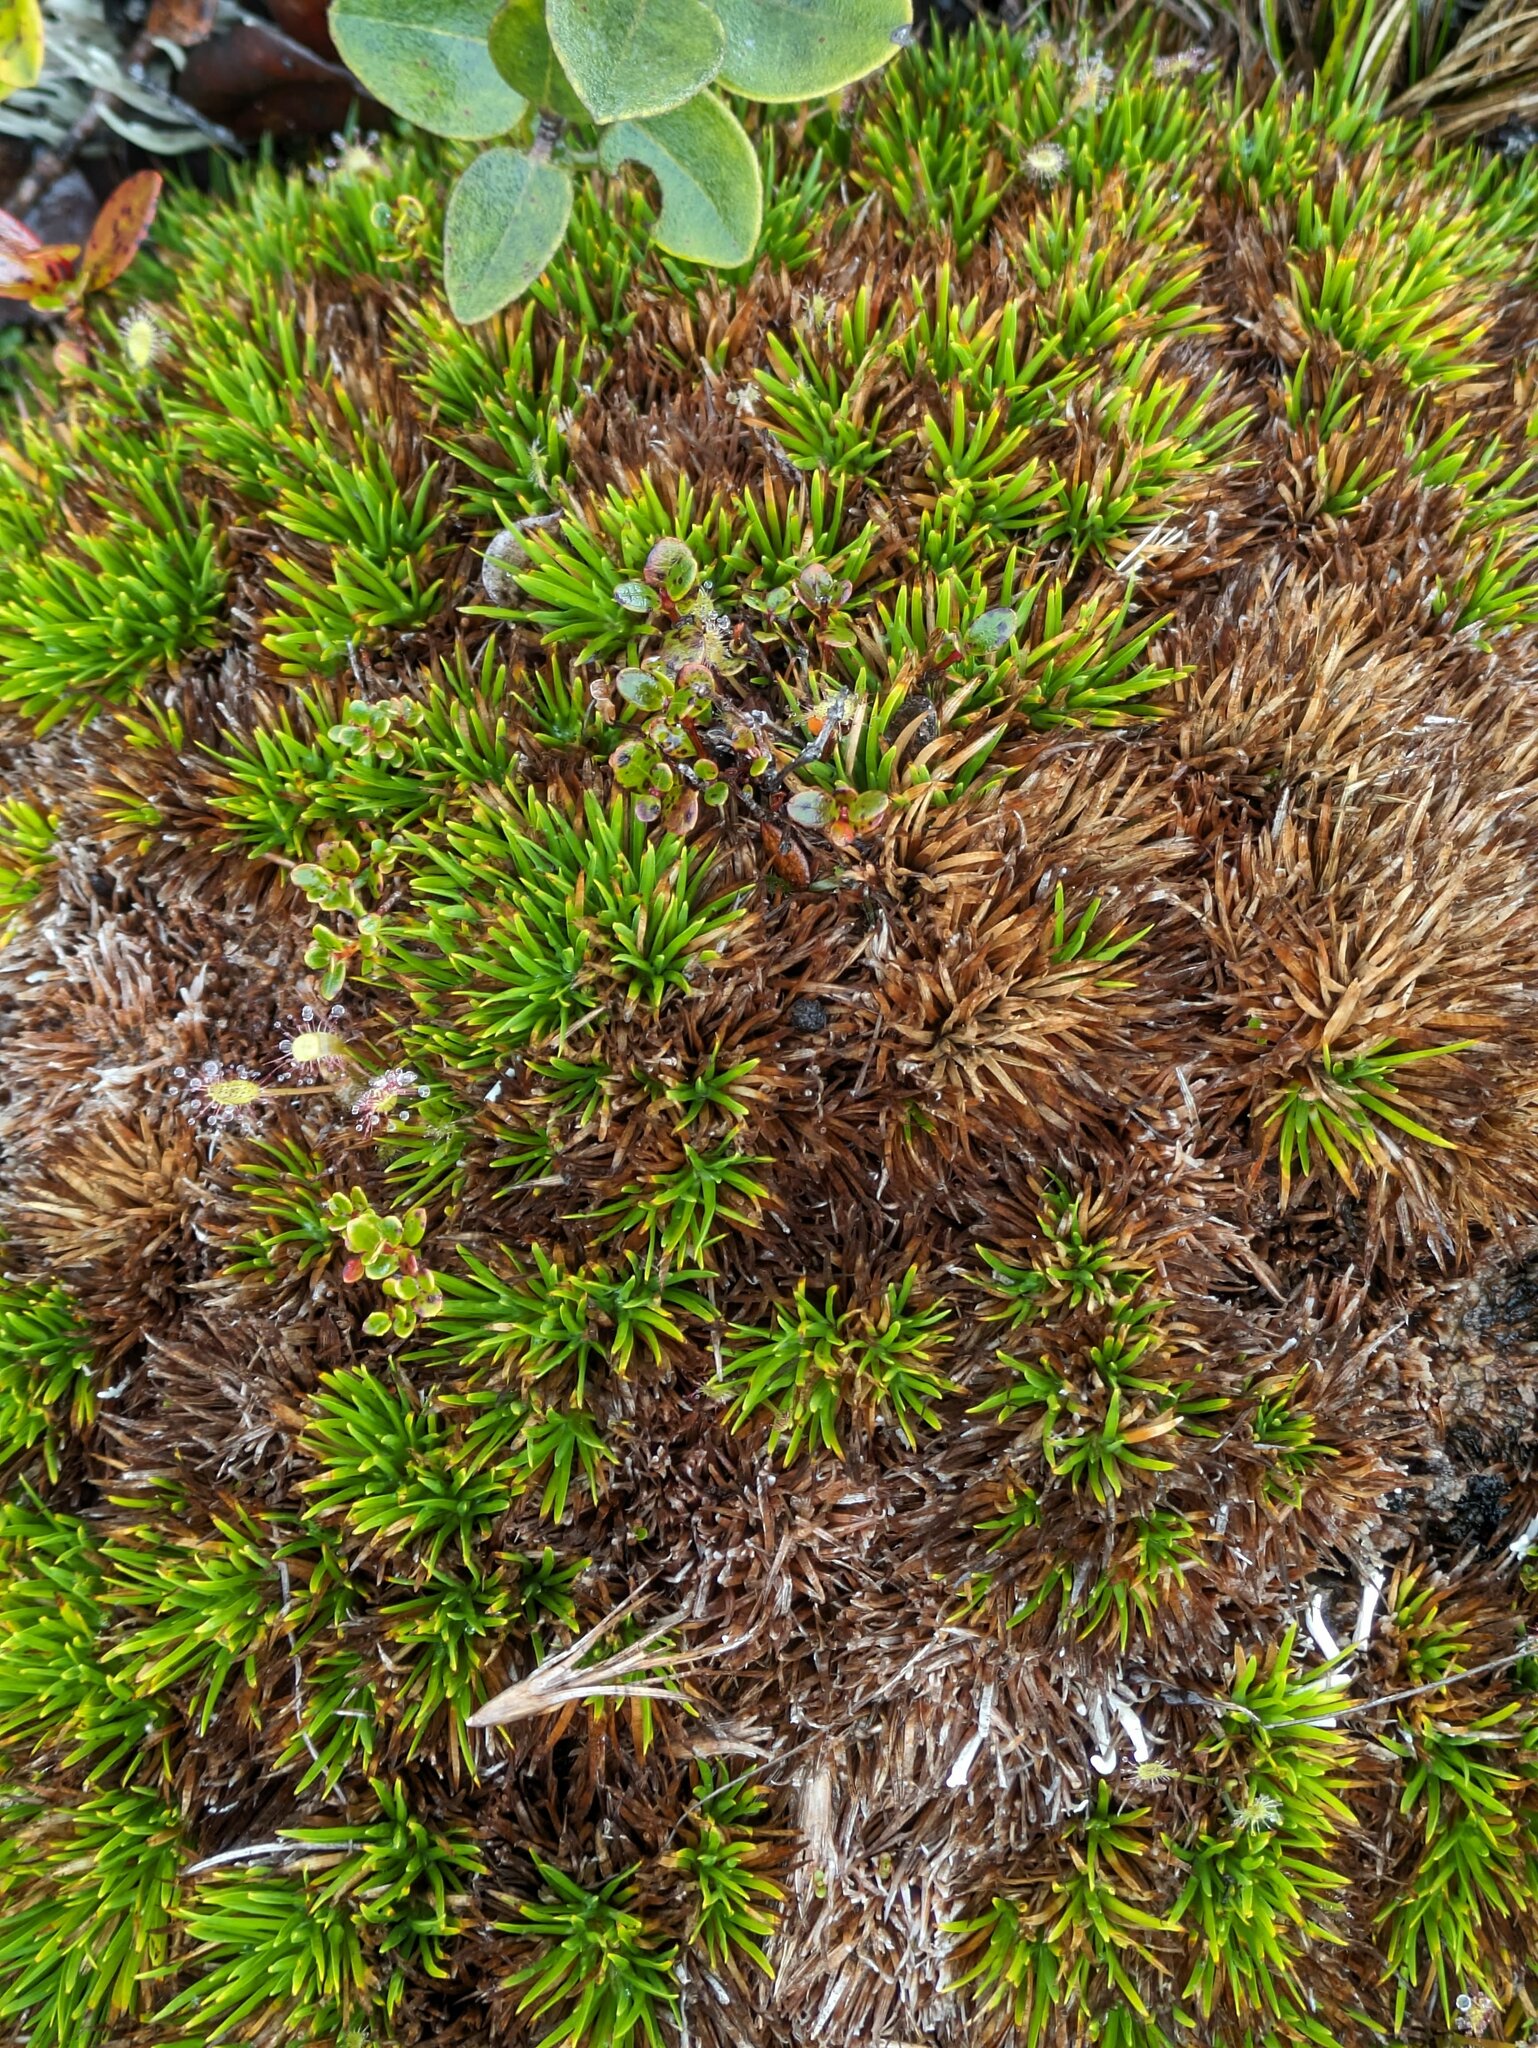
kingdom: Plantae
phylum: Tracheophyta
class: Liliopsida
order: Poales
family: Cyperaceae
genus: Oreobolus
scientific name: Oreobolus furcatus
